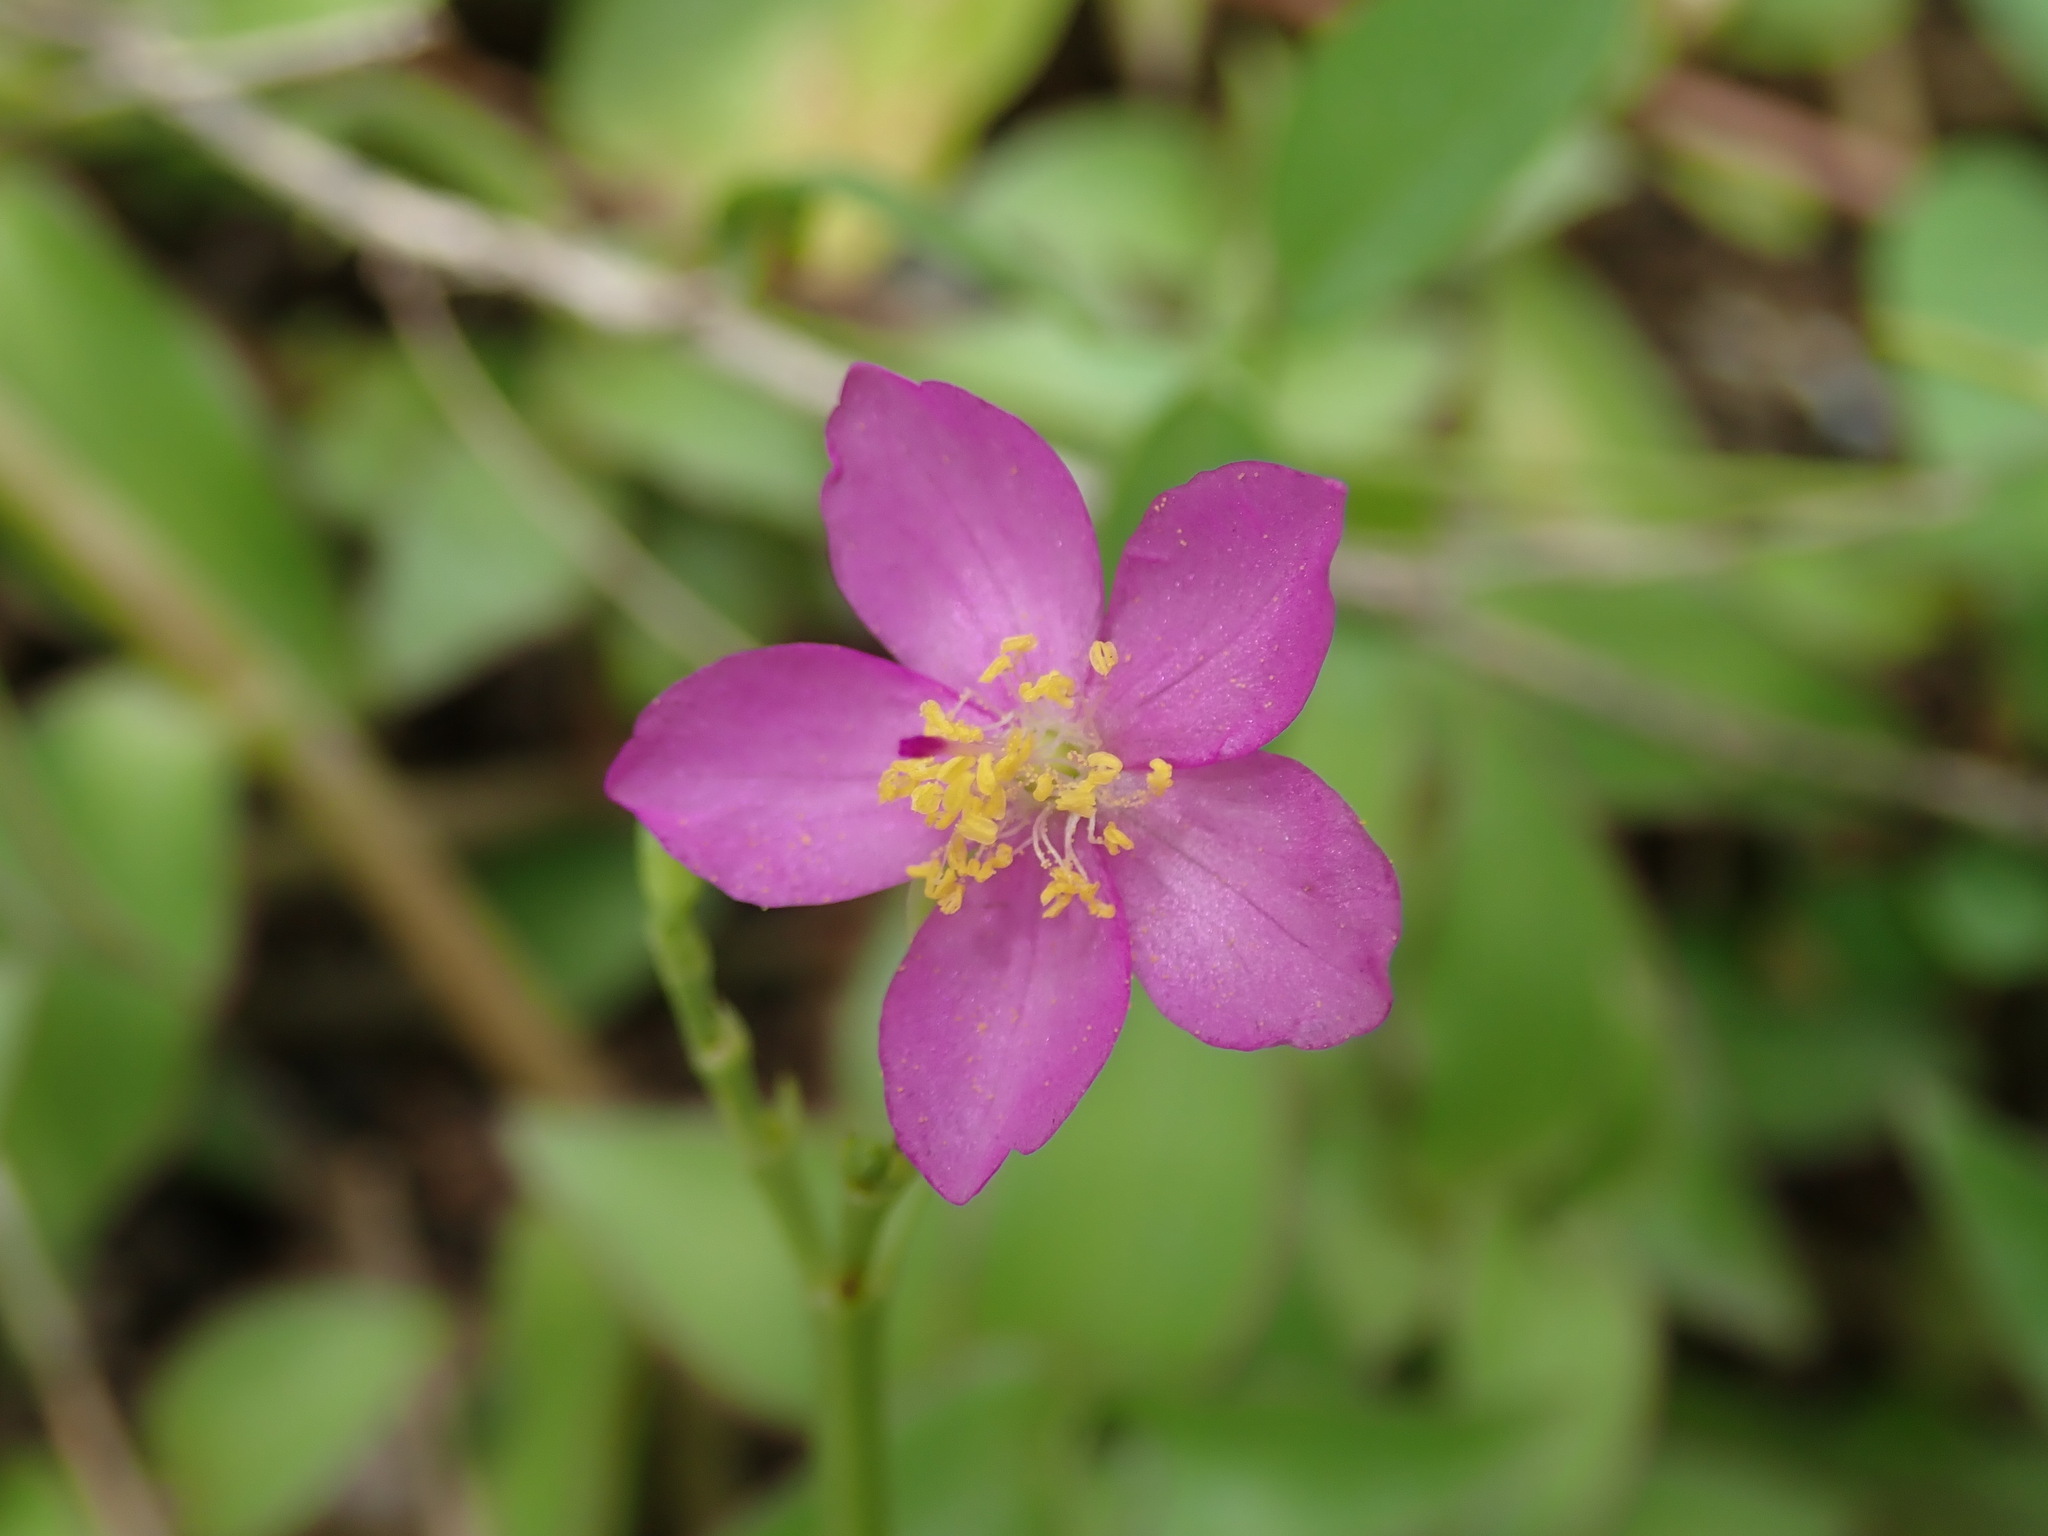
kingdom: Plantae
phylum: Tracheophyta
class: Magnoliopsida
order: Caryophyllales
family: Talinaceae
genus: Talinum
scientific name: Talinum fruticosum
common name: Verdolaga-francesa
